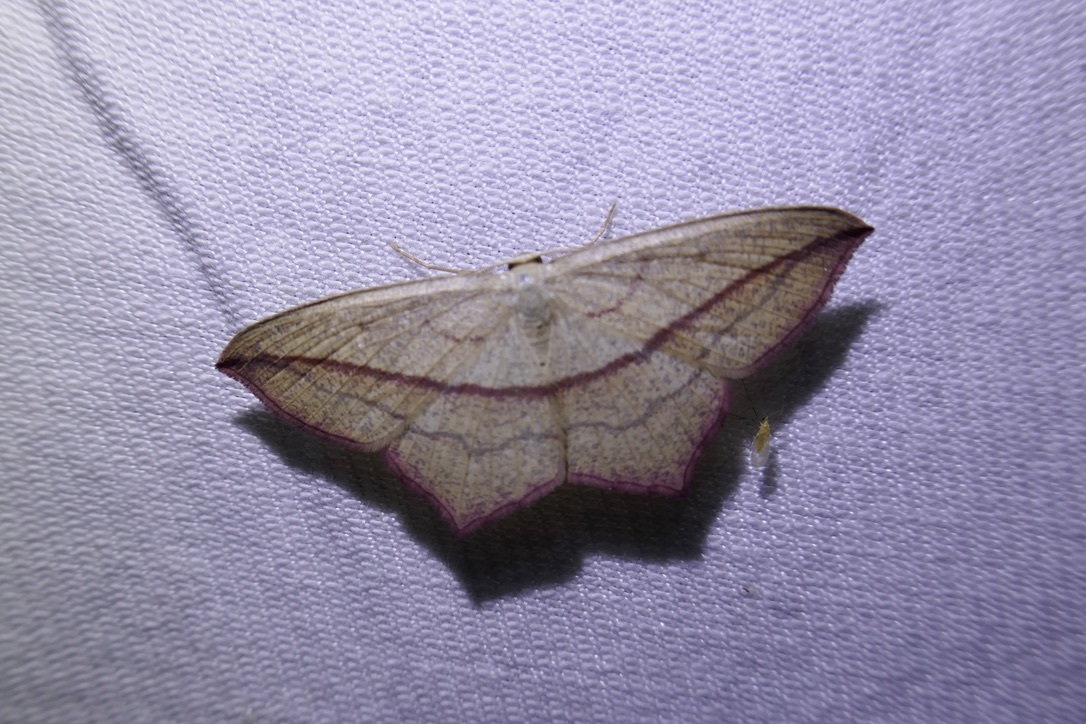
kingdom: Animalia
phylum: Arthropoda
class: Insecta
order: Lepidoptera
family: Geometridae
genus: Timandra
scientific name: Timandra comae
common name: Blood-vein
